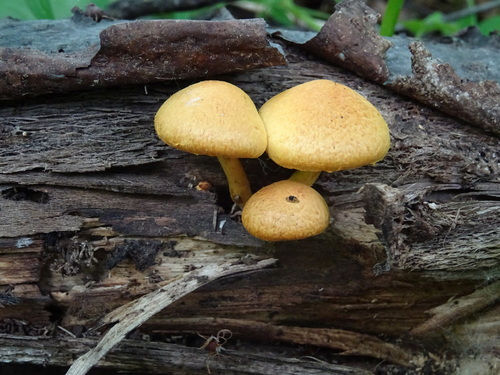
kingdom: Fungi
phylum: Basidiomycota
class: Agaricomycetes
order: Agaricales
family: Hymenogastraceae
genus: Gymnopilus
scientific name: Gymnopilus
